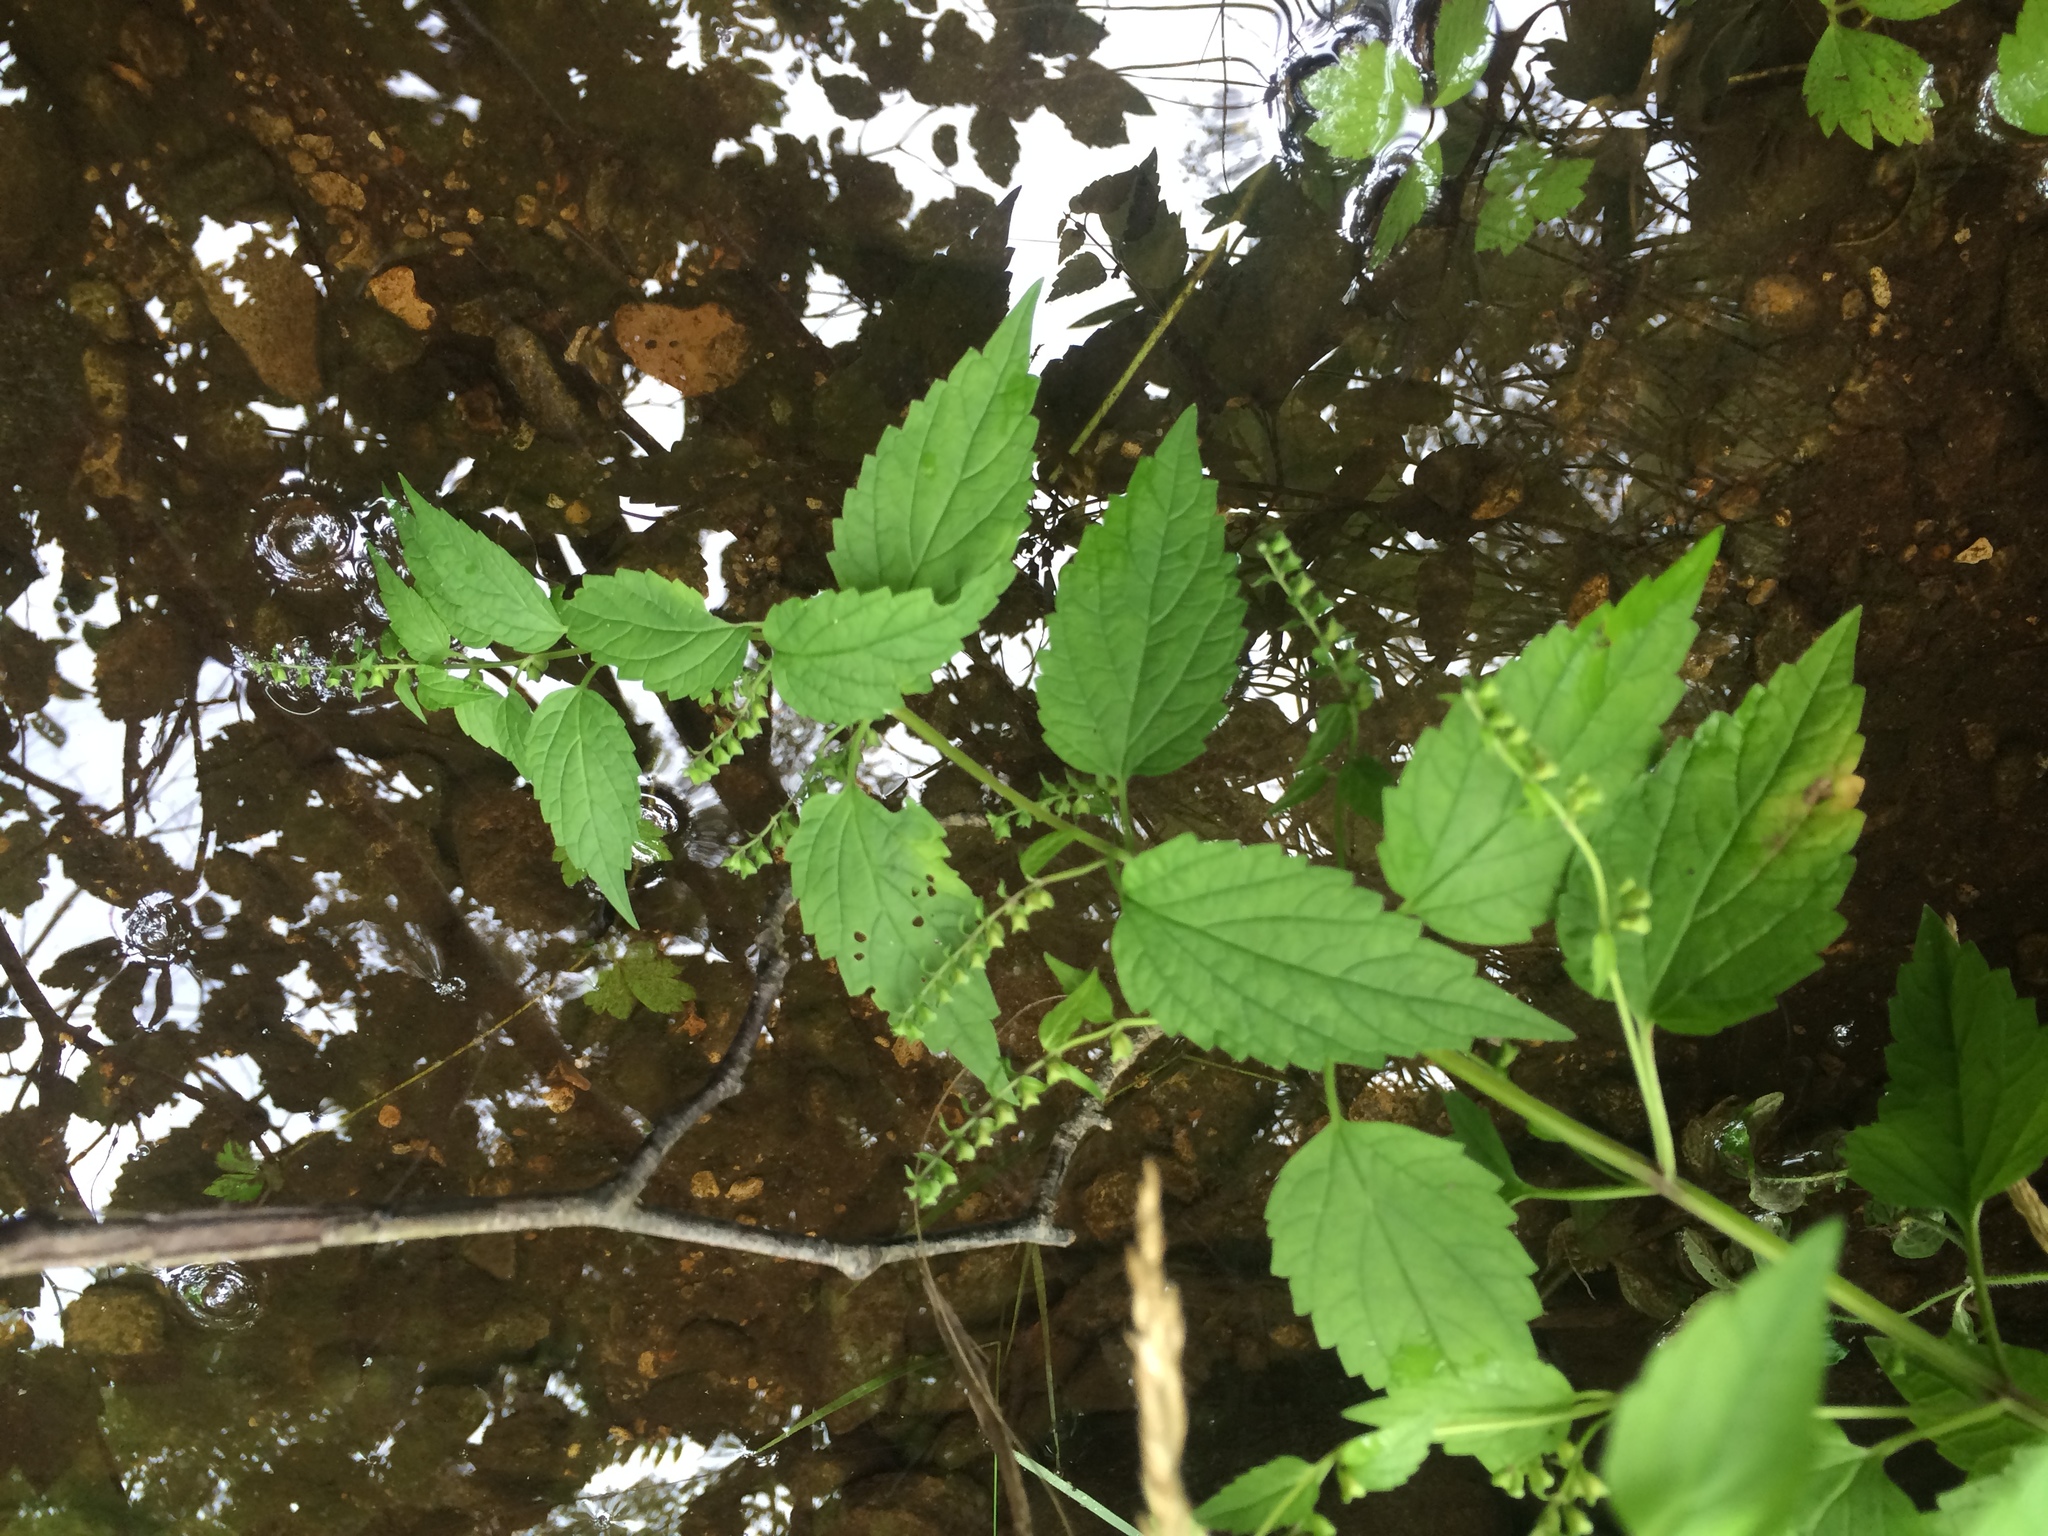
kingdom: Plantae
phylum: Tracheophyta
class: Magnoliopsida
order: Lamiales
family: Lamiaceae
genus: Scutellaria
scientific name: Scutellaria lateriflora
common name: Blue skullcap
